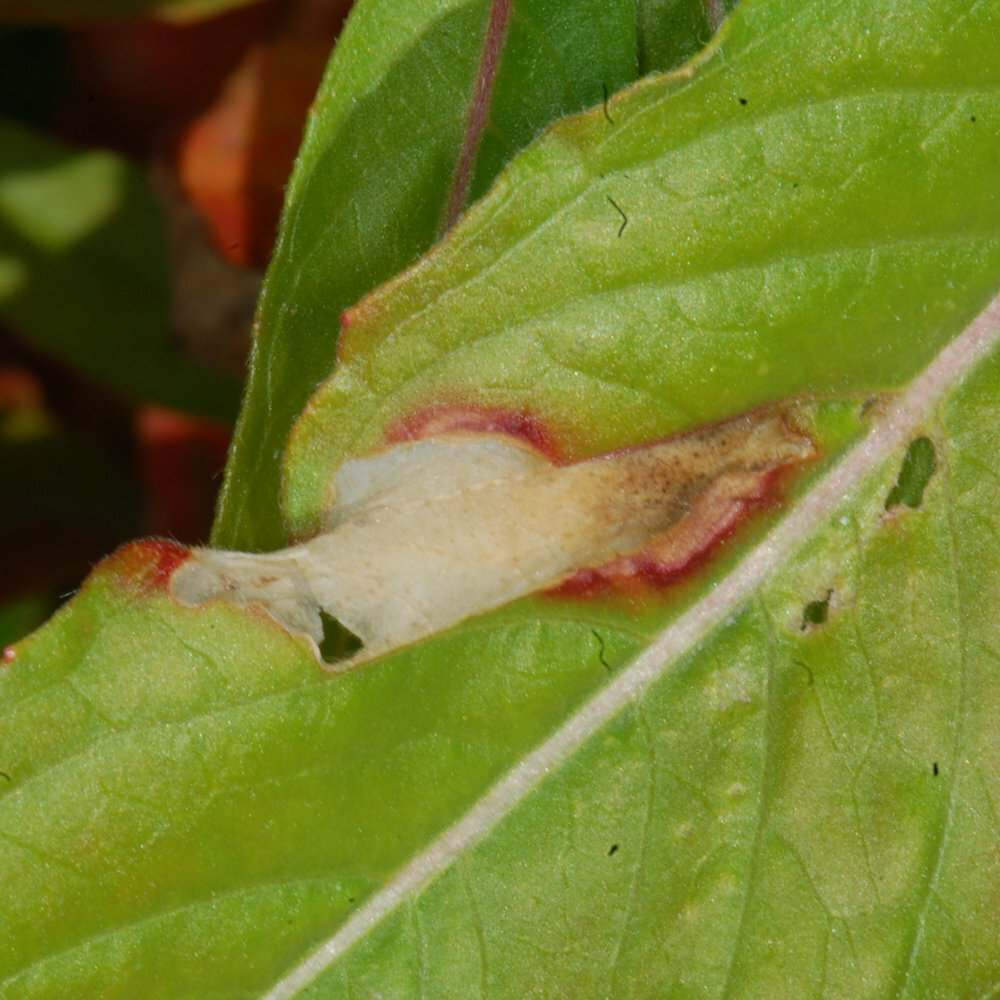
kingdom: Animalia
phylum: Arthropoda
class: Insecta
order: Lepidoptera
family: Gelechiidae
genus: Aristotelia
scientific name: Aristotelia isopelta
